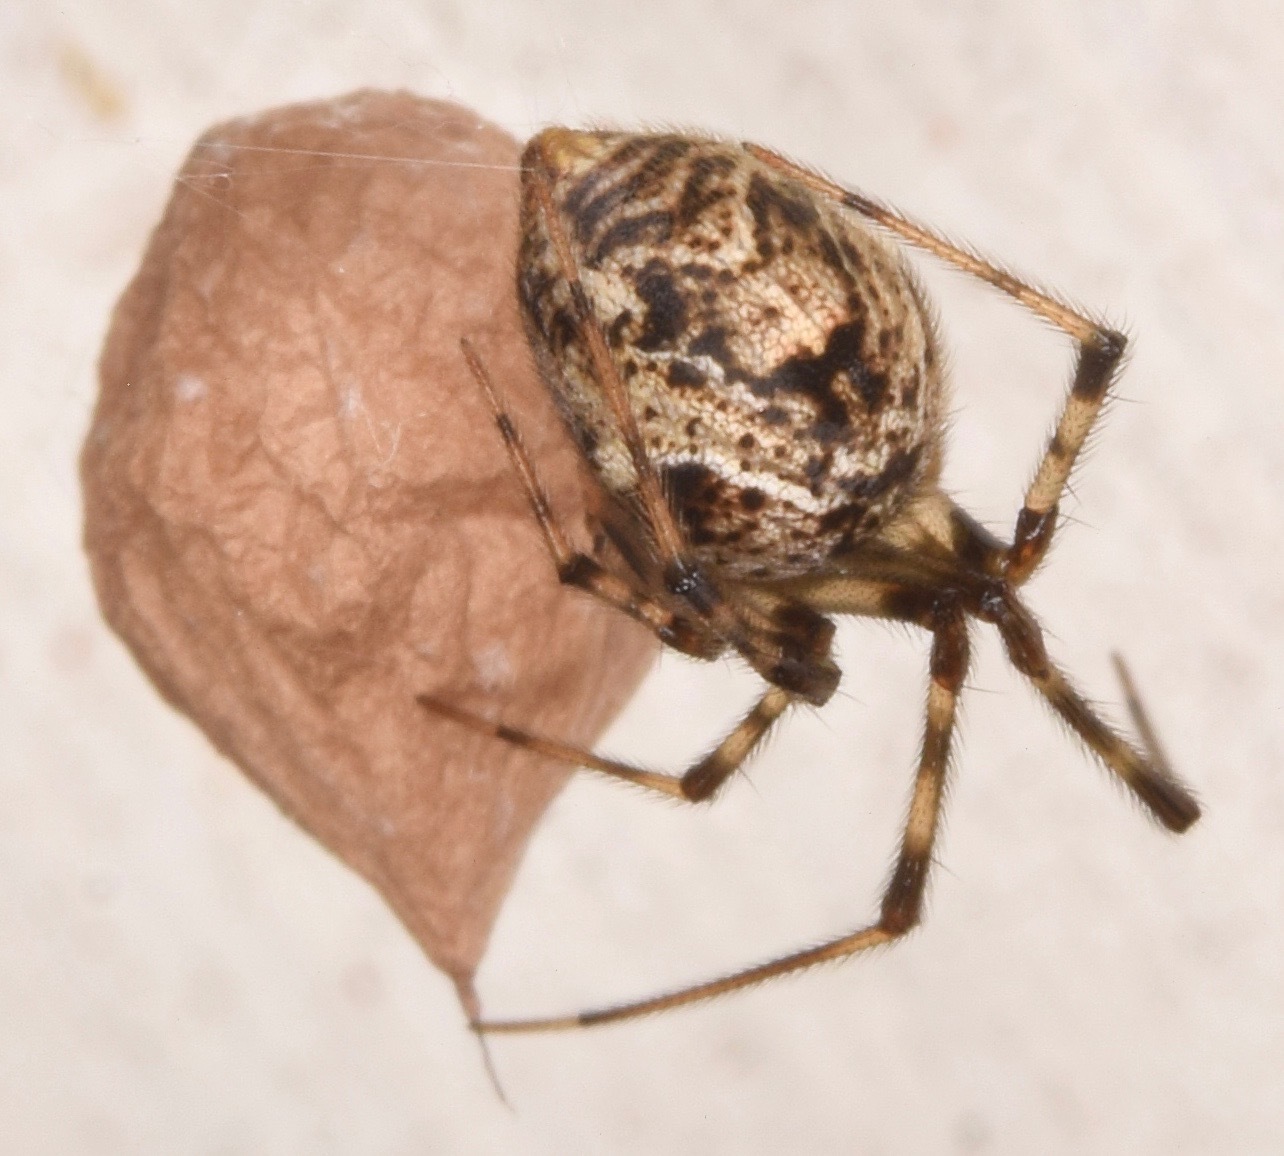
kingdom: Animalia
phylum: Arthropoda
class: Arachnida
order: Araneae
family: Theridiidae
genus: Parasteatoda
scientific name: Parasteatoda tepidariorum
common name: Common house spider
